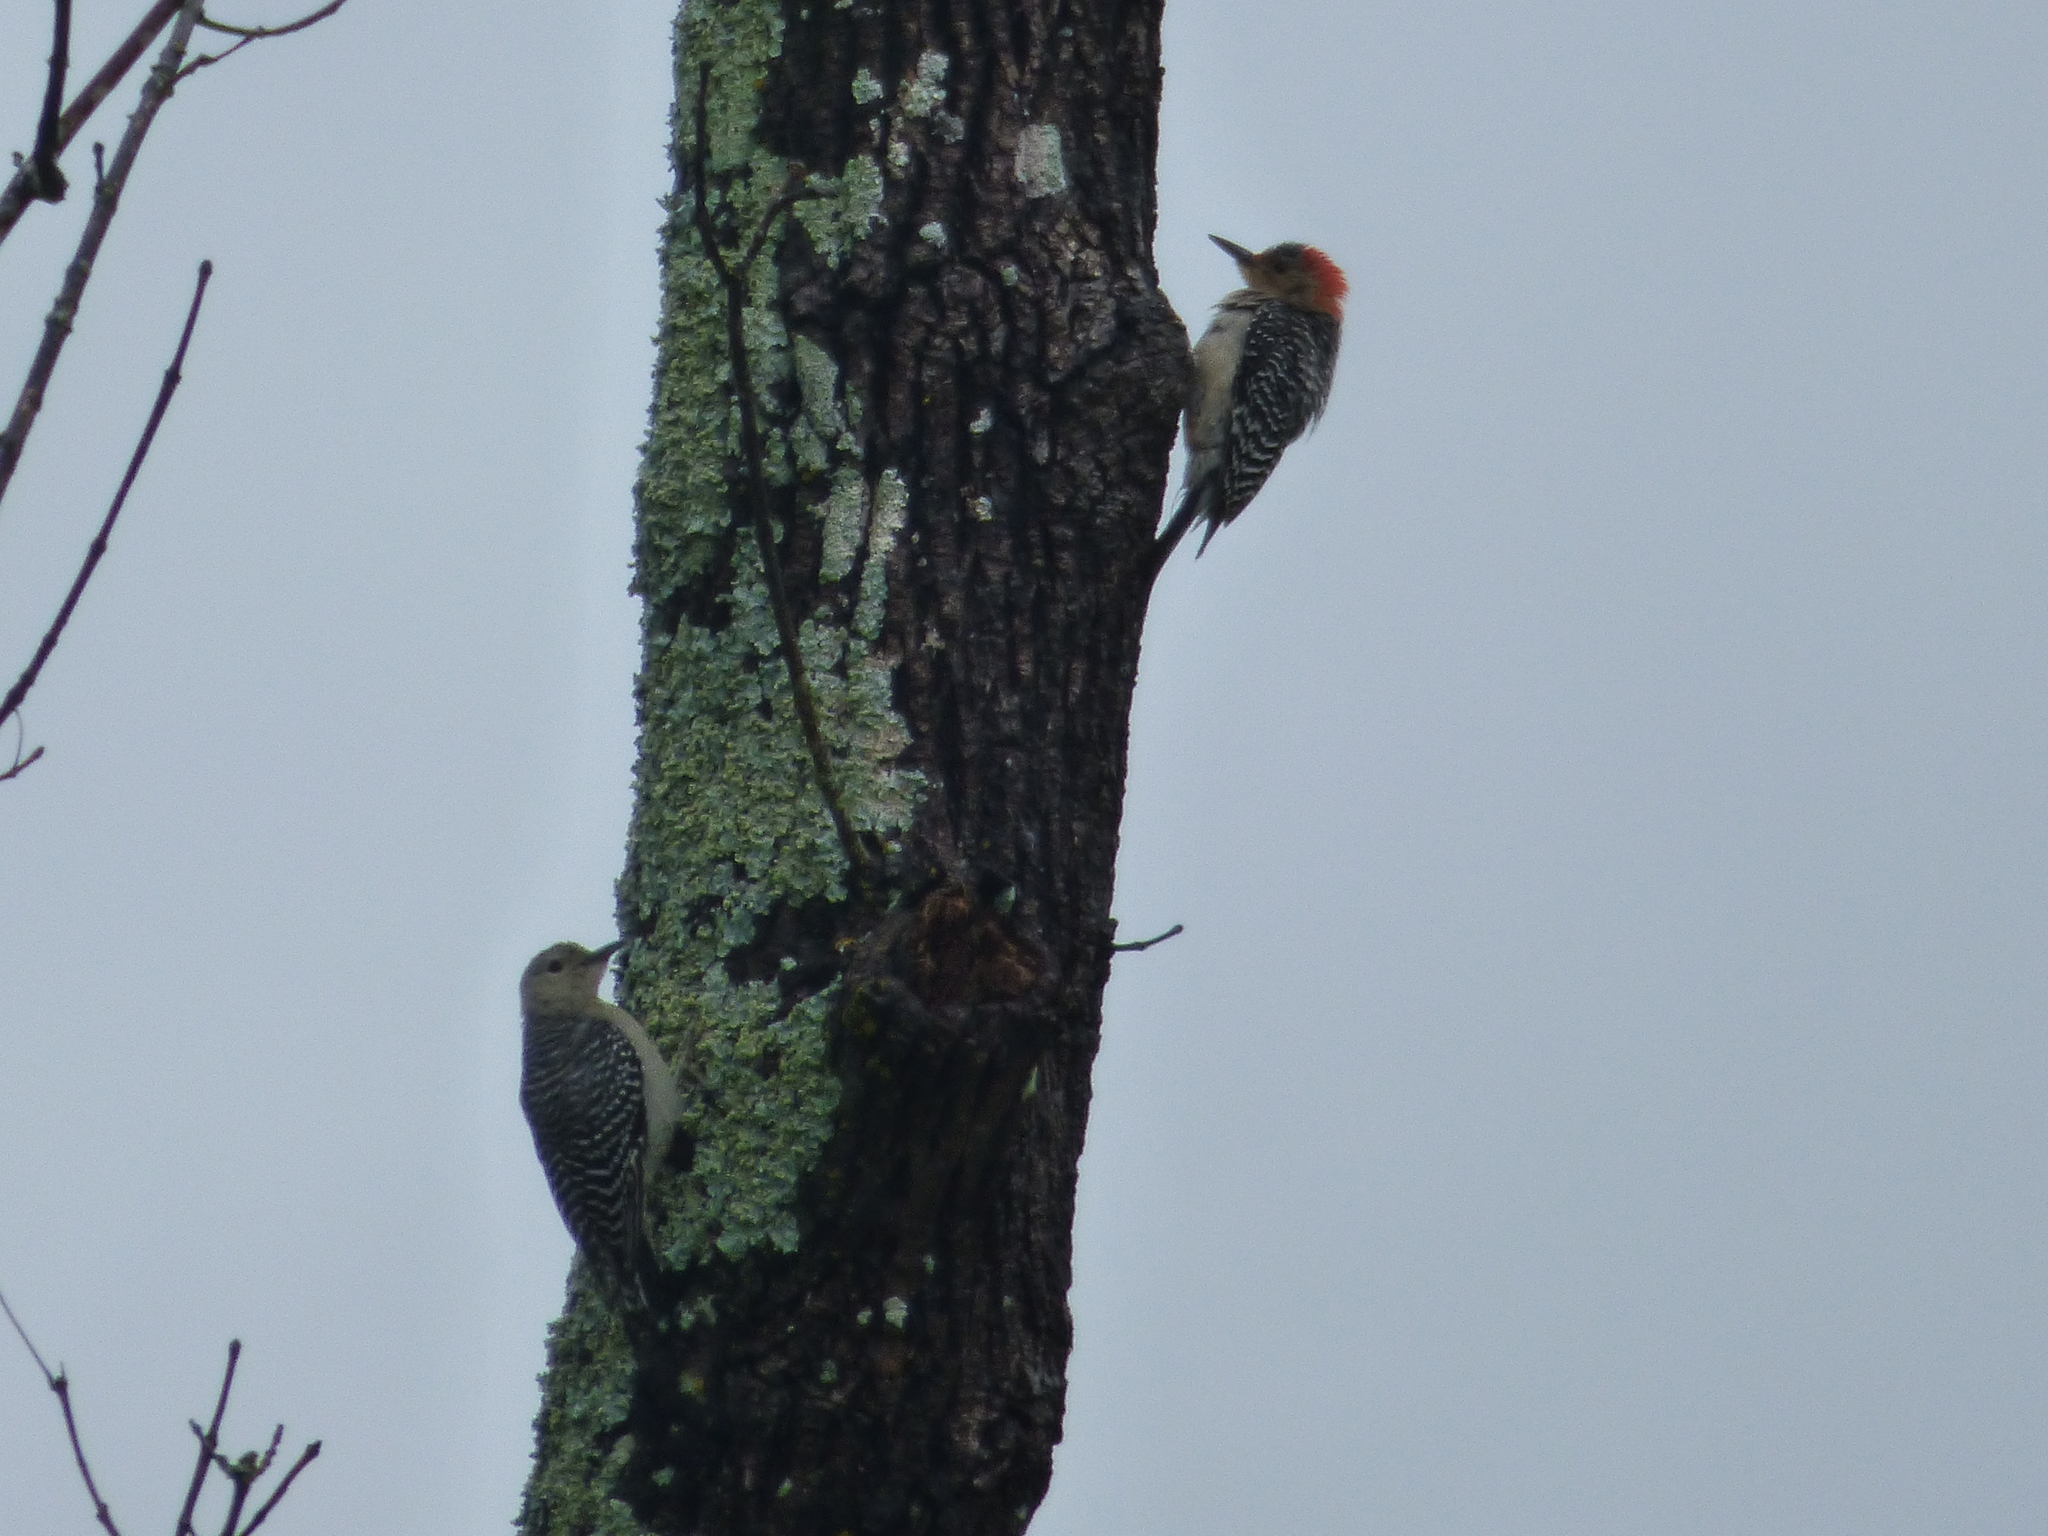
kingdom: Animalia
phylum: Chordata
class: Aves
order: Piciformes
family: Picidae
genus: Melanerpes
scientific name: Melanerpes carolinus
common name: Red-bellied woodpecker
